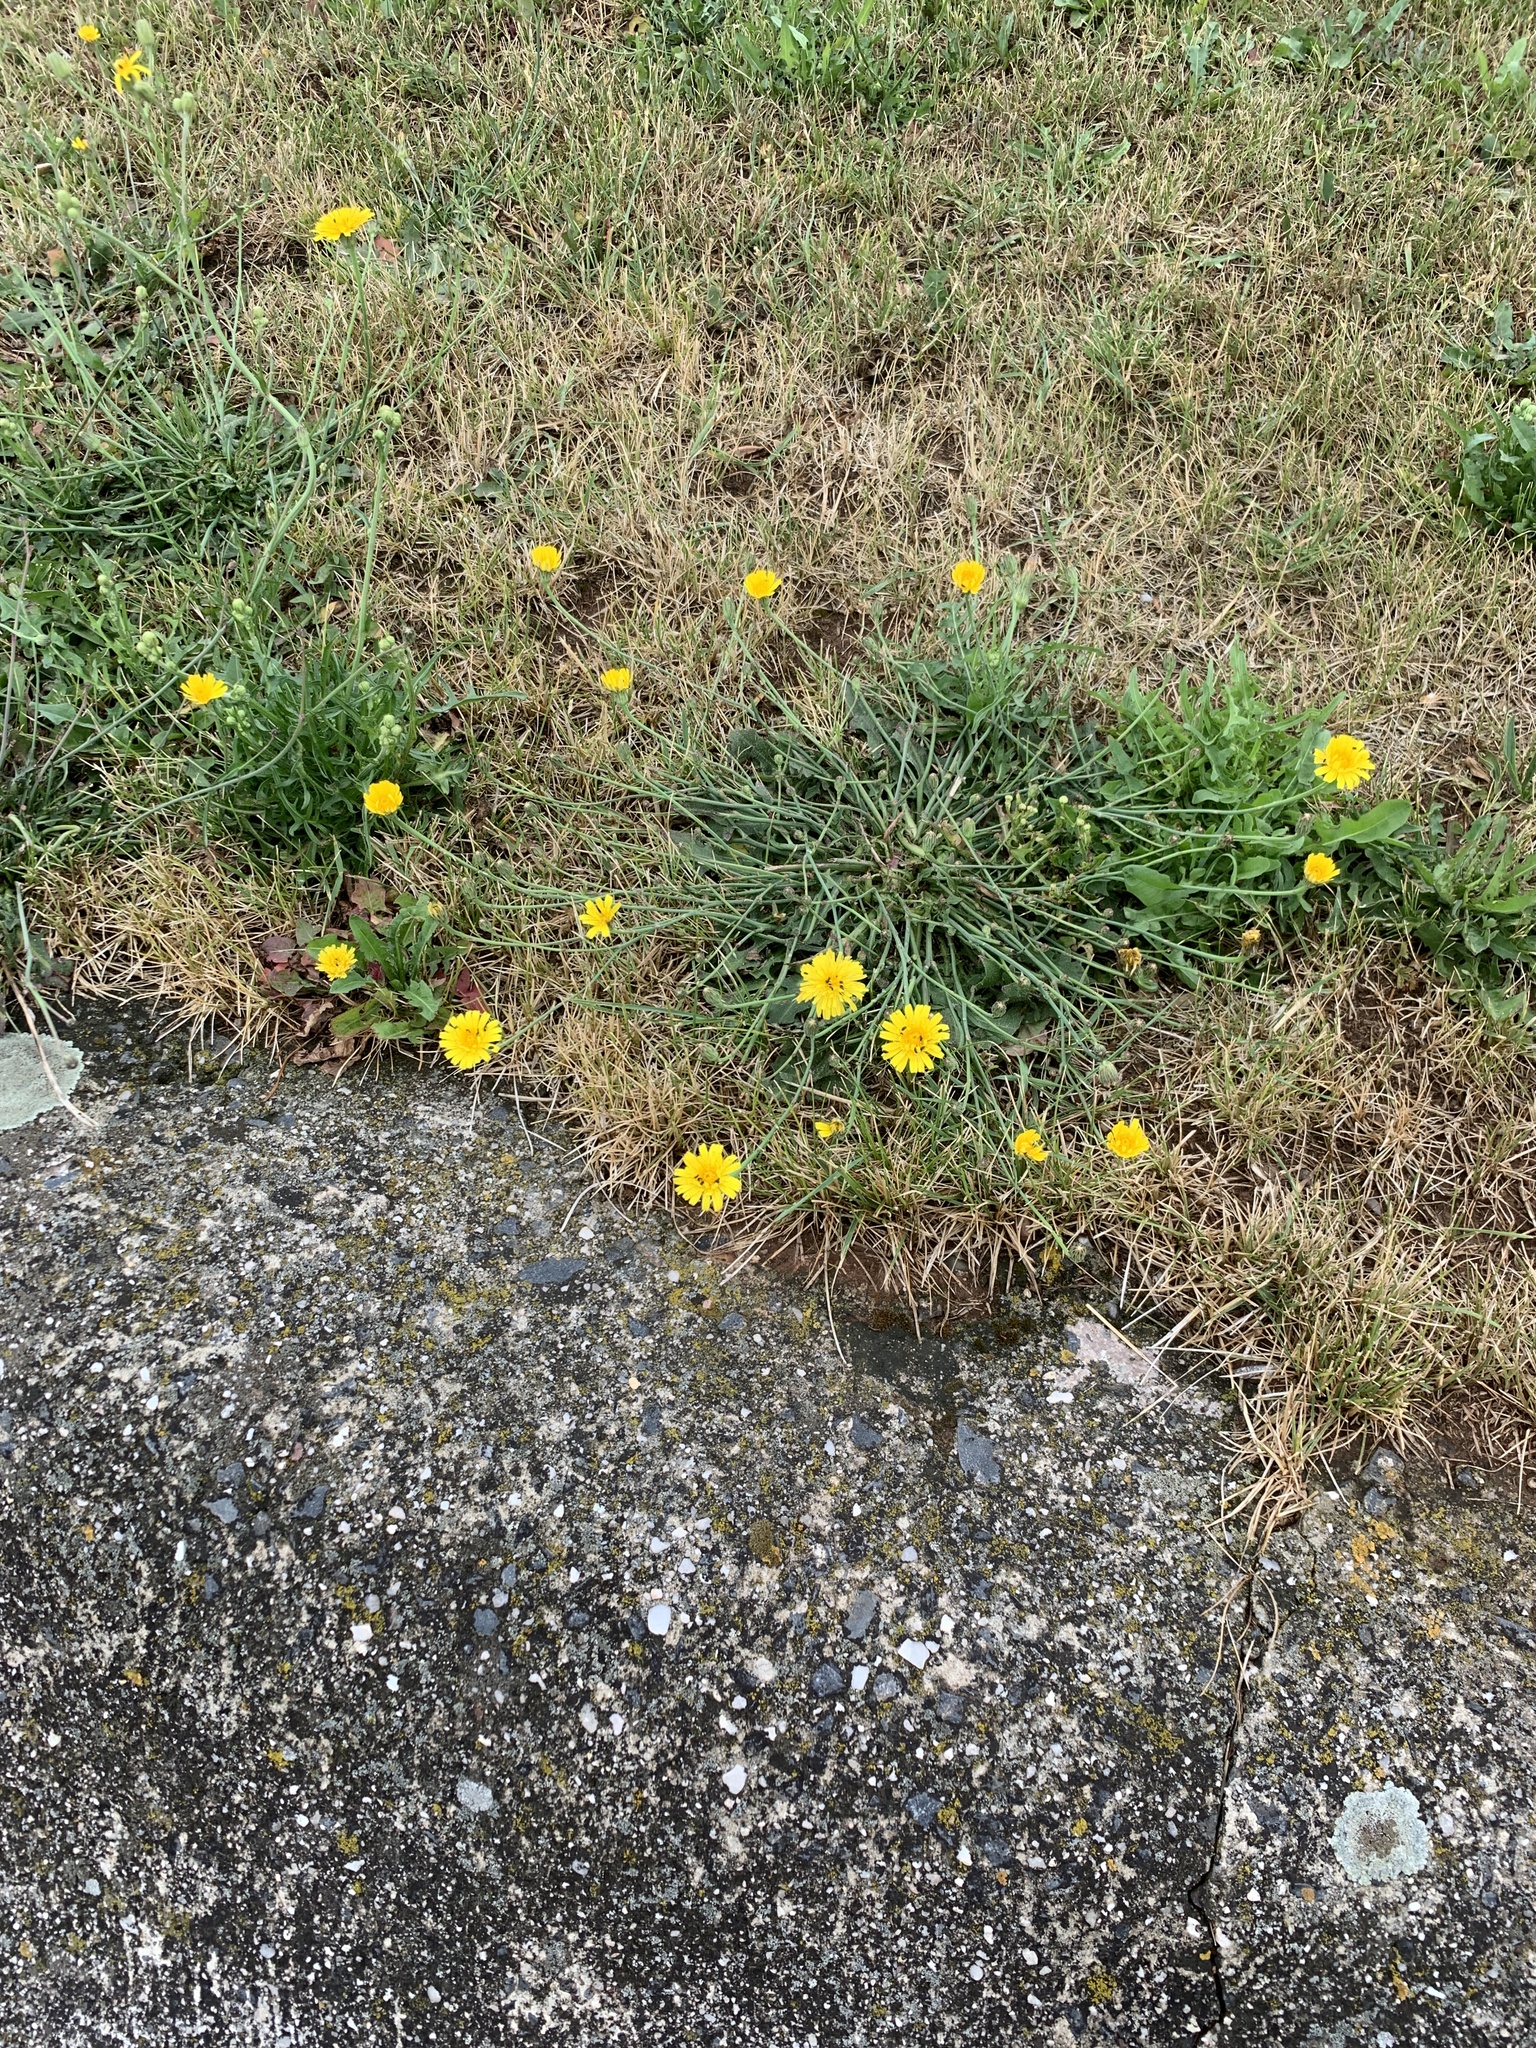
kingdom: Plantae
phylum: Tracheophyta
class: Magnoliopsida
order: Asterales
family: Asteraceae
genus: Hypochaeris
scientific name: Hypochaeris radicata
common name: Flatweed
